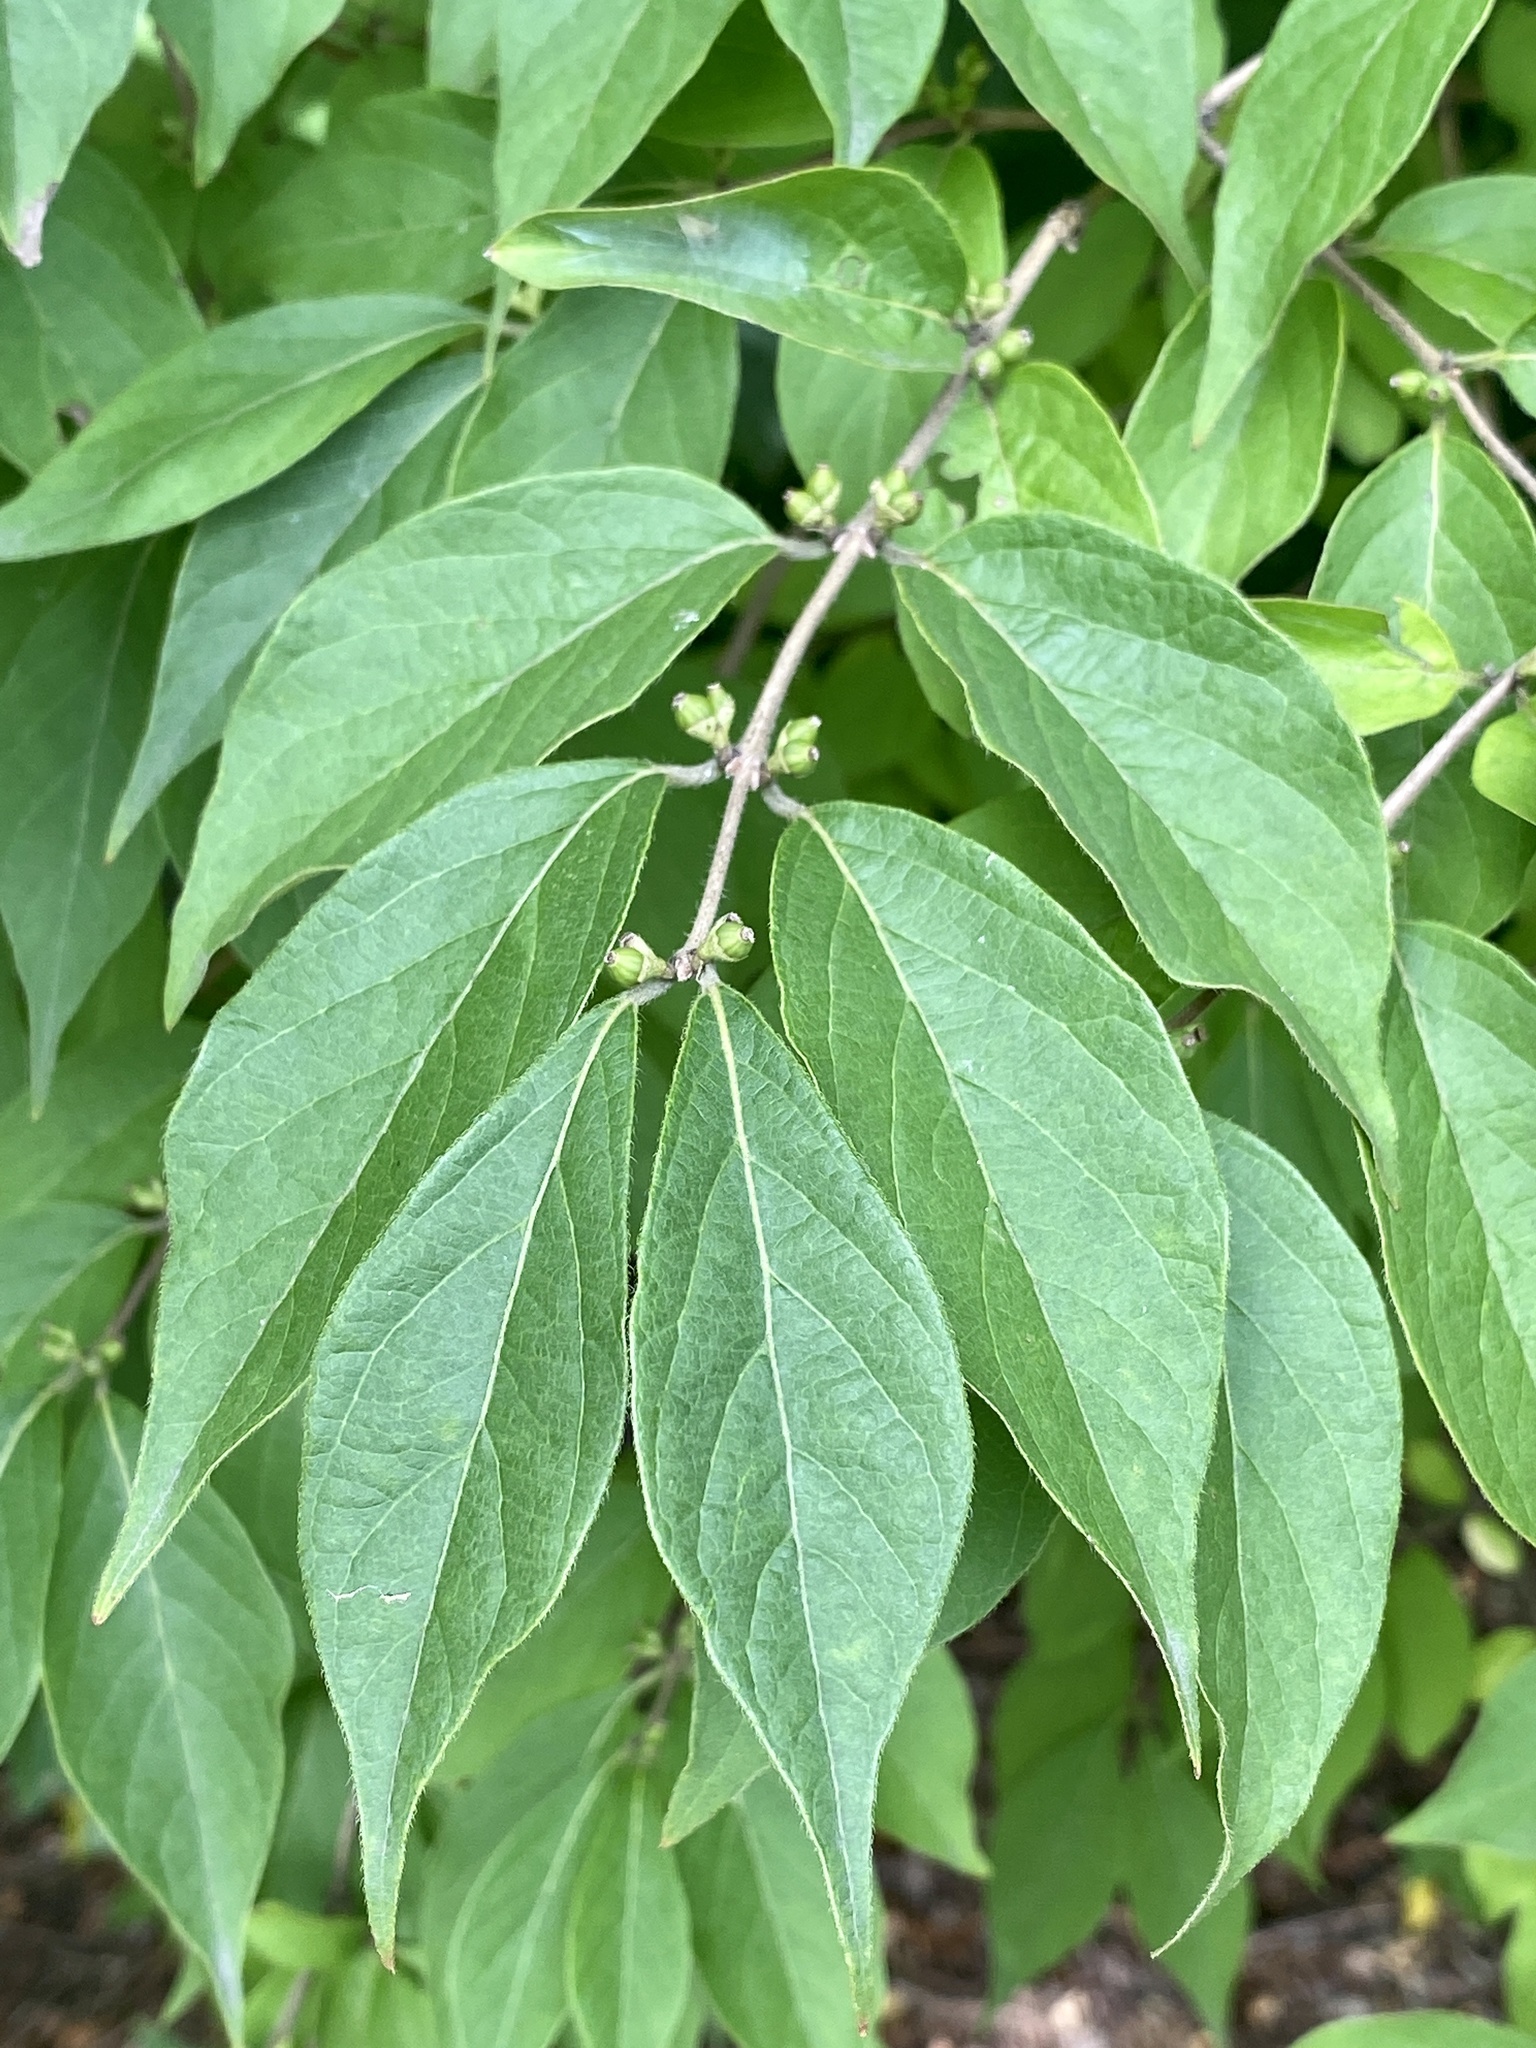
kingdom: Plantae
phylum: Tracheophyta
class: Magnoliopsida
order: Dipsacales
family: Caprifoliaceae
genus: Lonicera
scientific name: Lonicera maackii
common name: Amur honeysuckle
